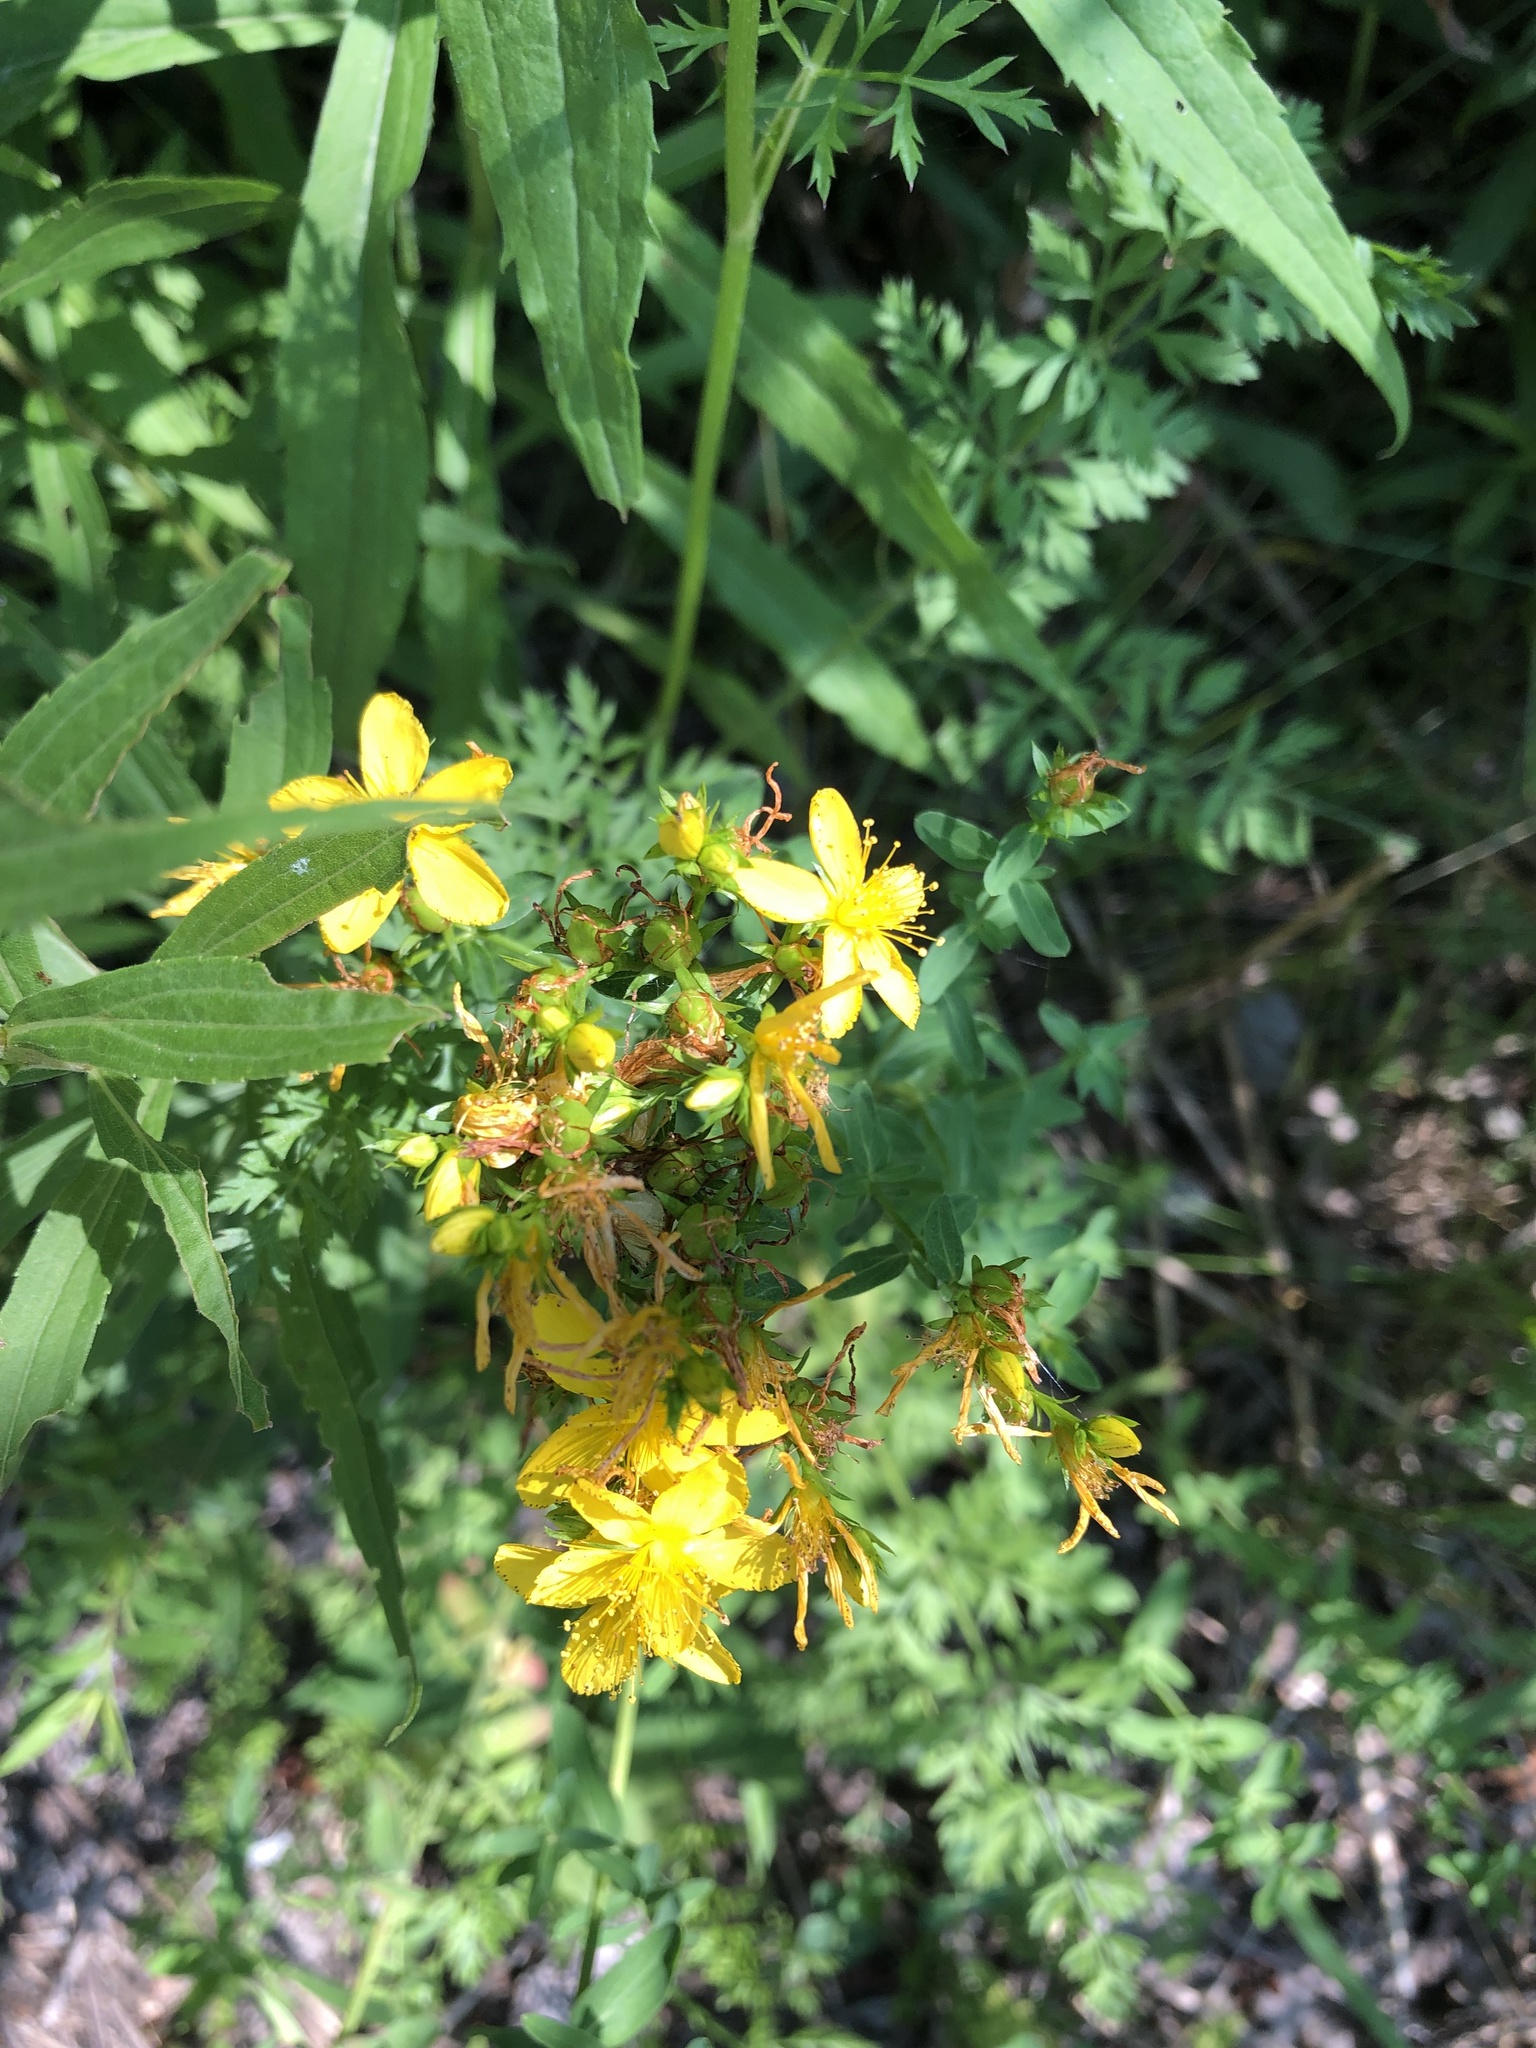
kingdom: Plantae
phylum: Tracheophyta
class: Magnoliopsida
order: Malpighiales
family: Hypericaceae
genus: Hypericum
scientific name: Hypericum perforatum
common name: Common st. johnswort
